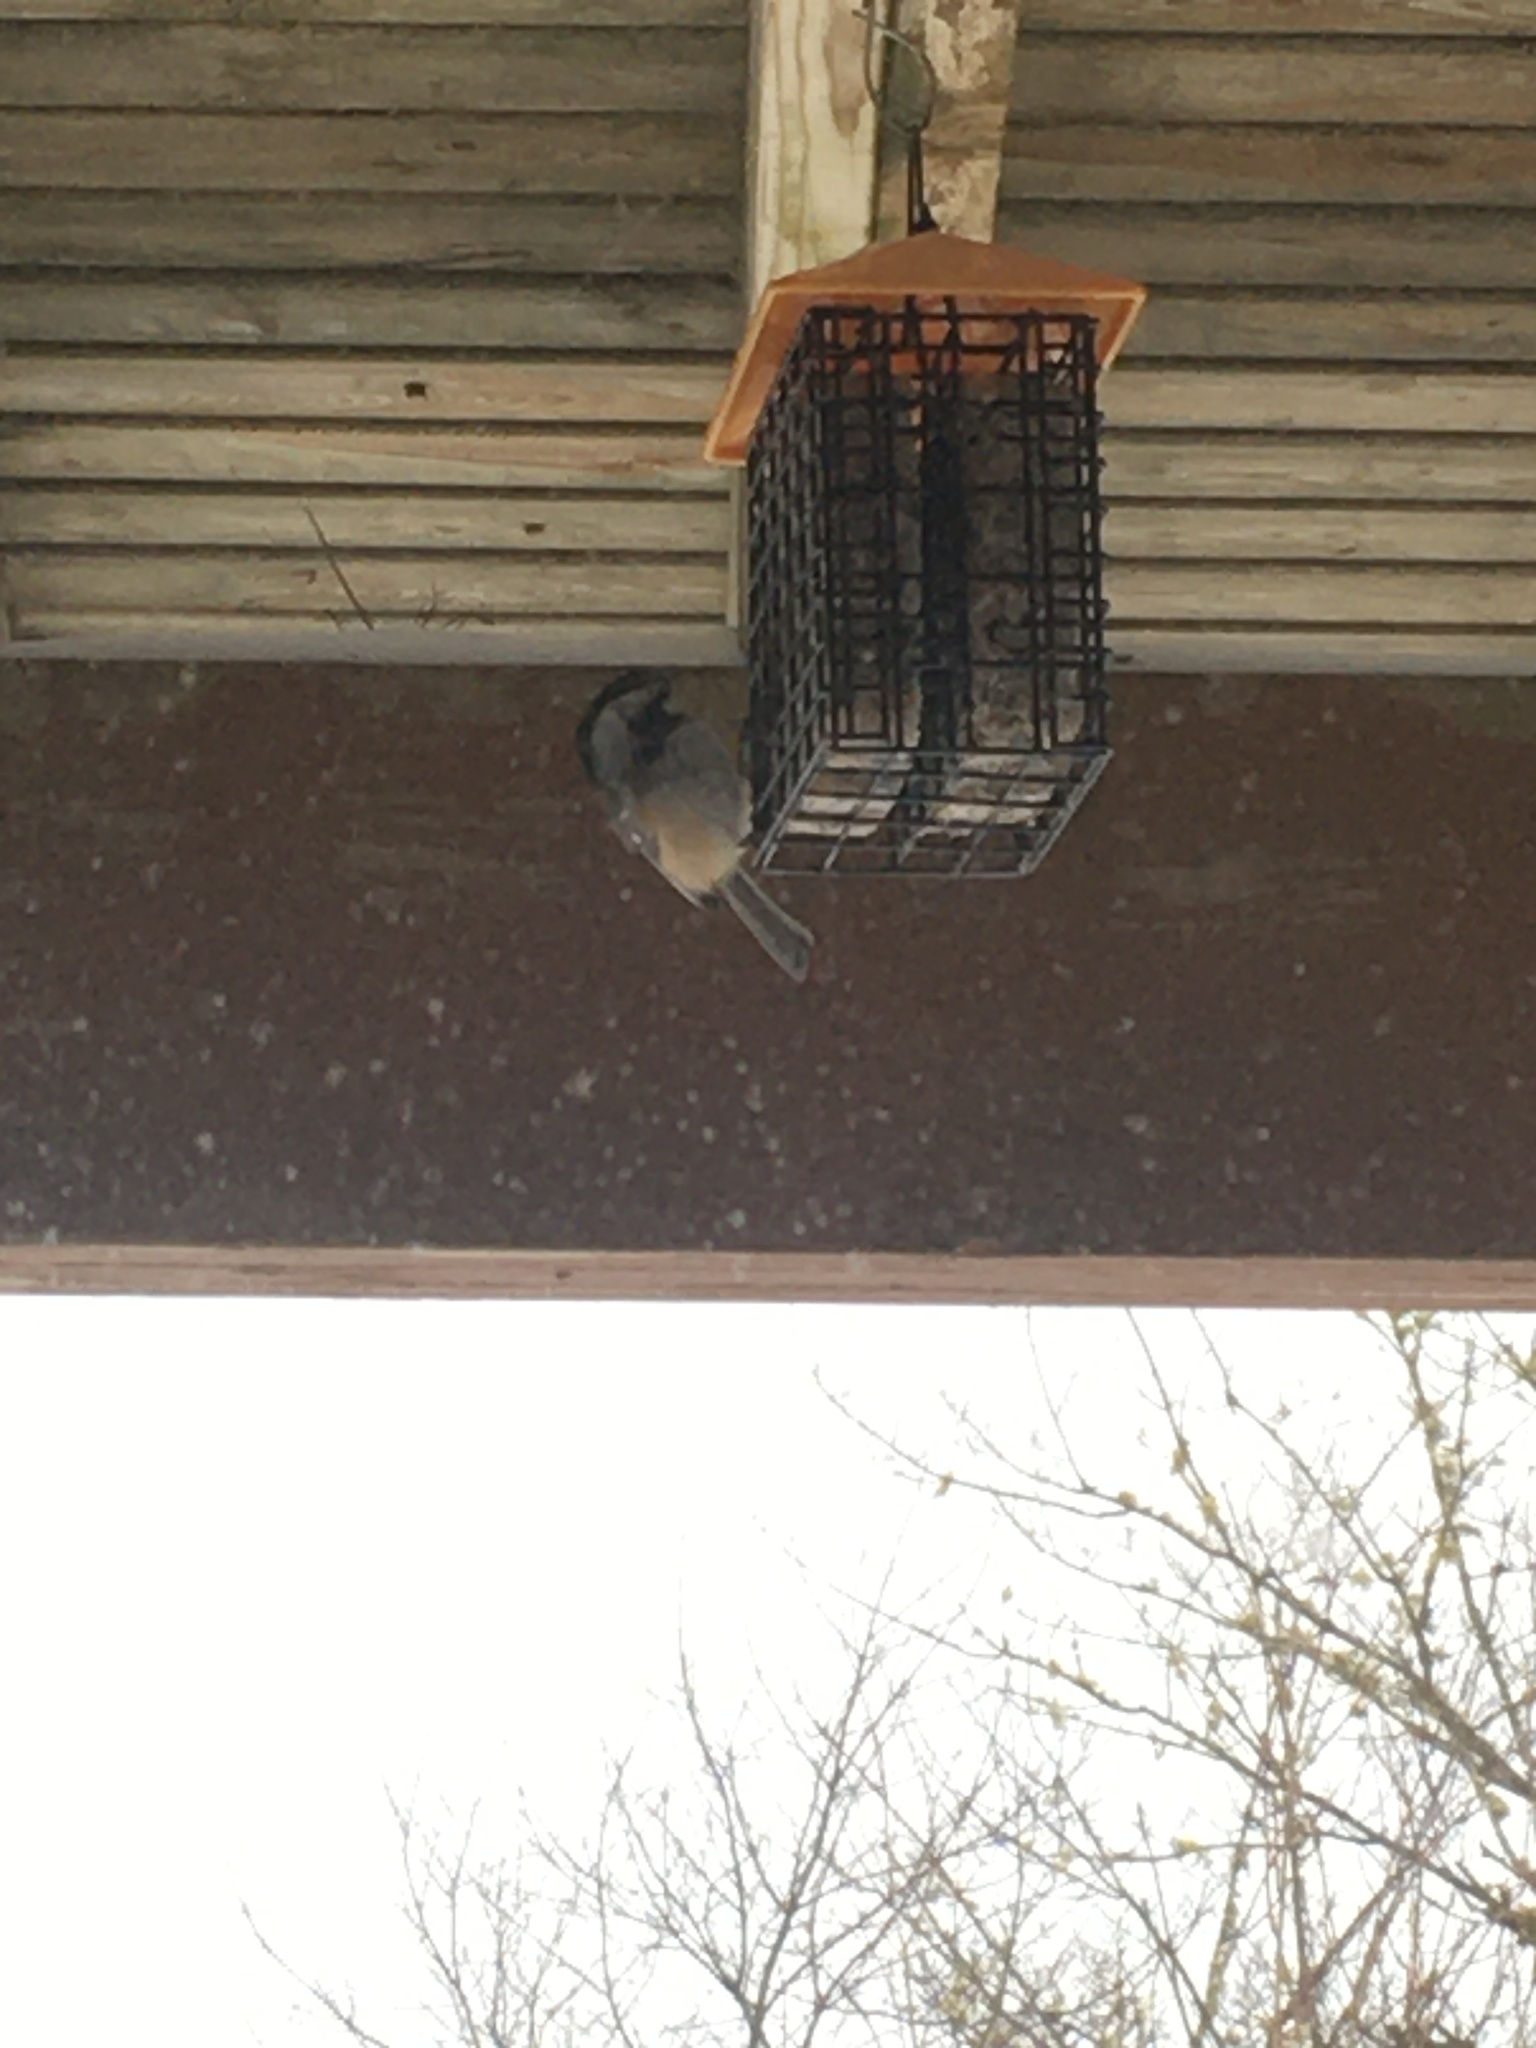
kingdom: Animalia
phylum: Chordata
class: Aves
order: Passeriformes
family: Paridae
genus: Poecile
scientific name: Poecile atricapillus
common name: Black-capped chickadee
